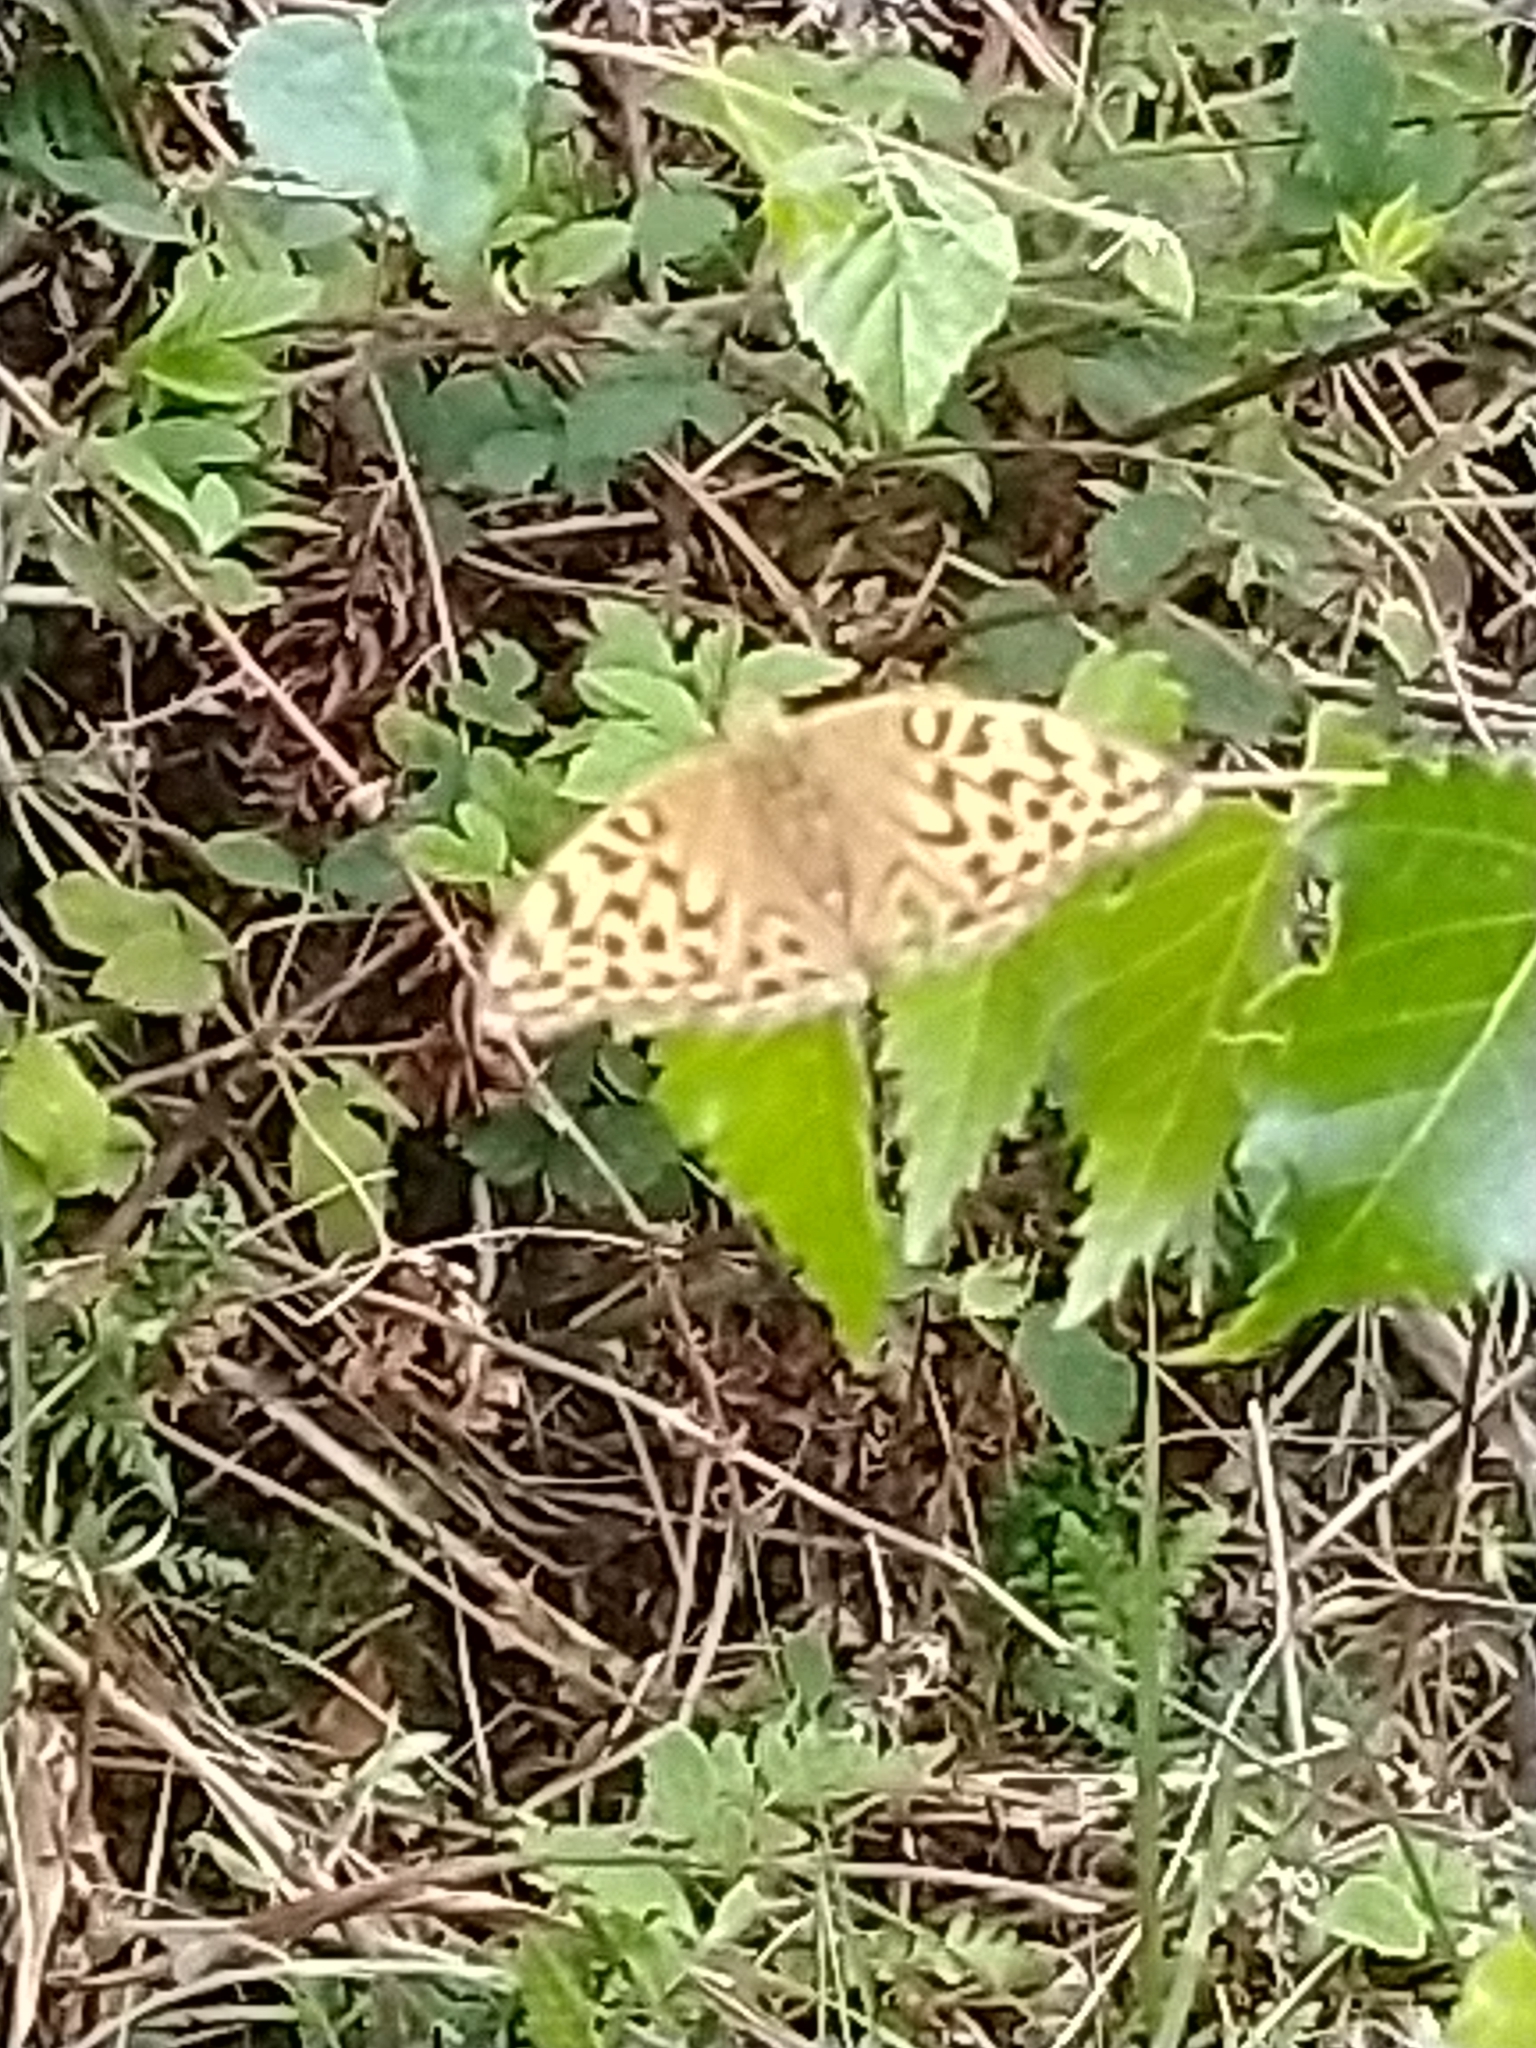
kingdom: Animalia
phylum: Arthropoda
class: Insecta
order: Lepidoptera
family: Nymphalidae
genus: Argynnis
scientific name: Argynnis paphia
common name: Silver-washed fritillary
